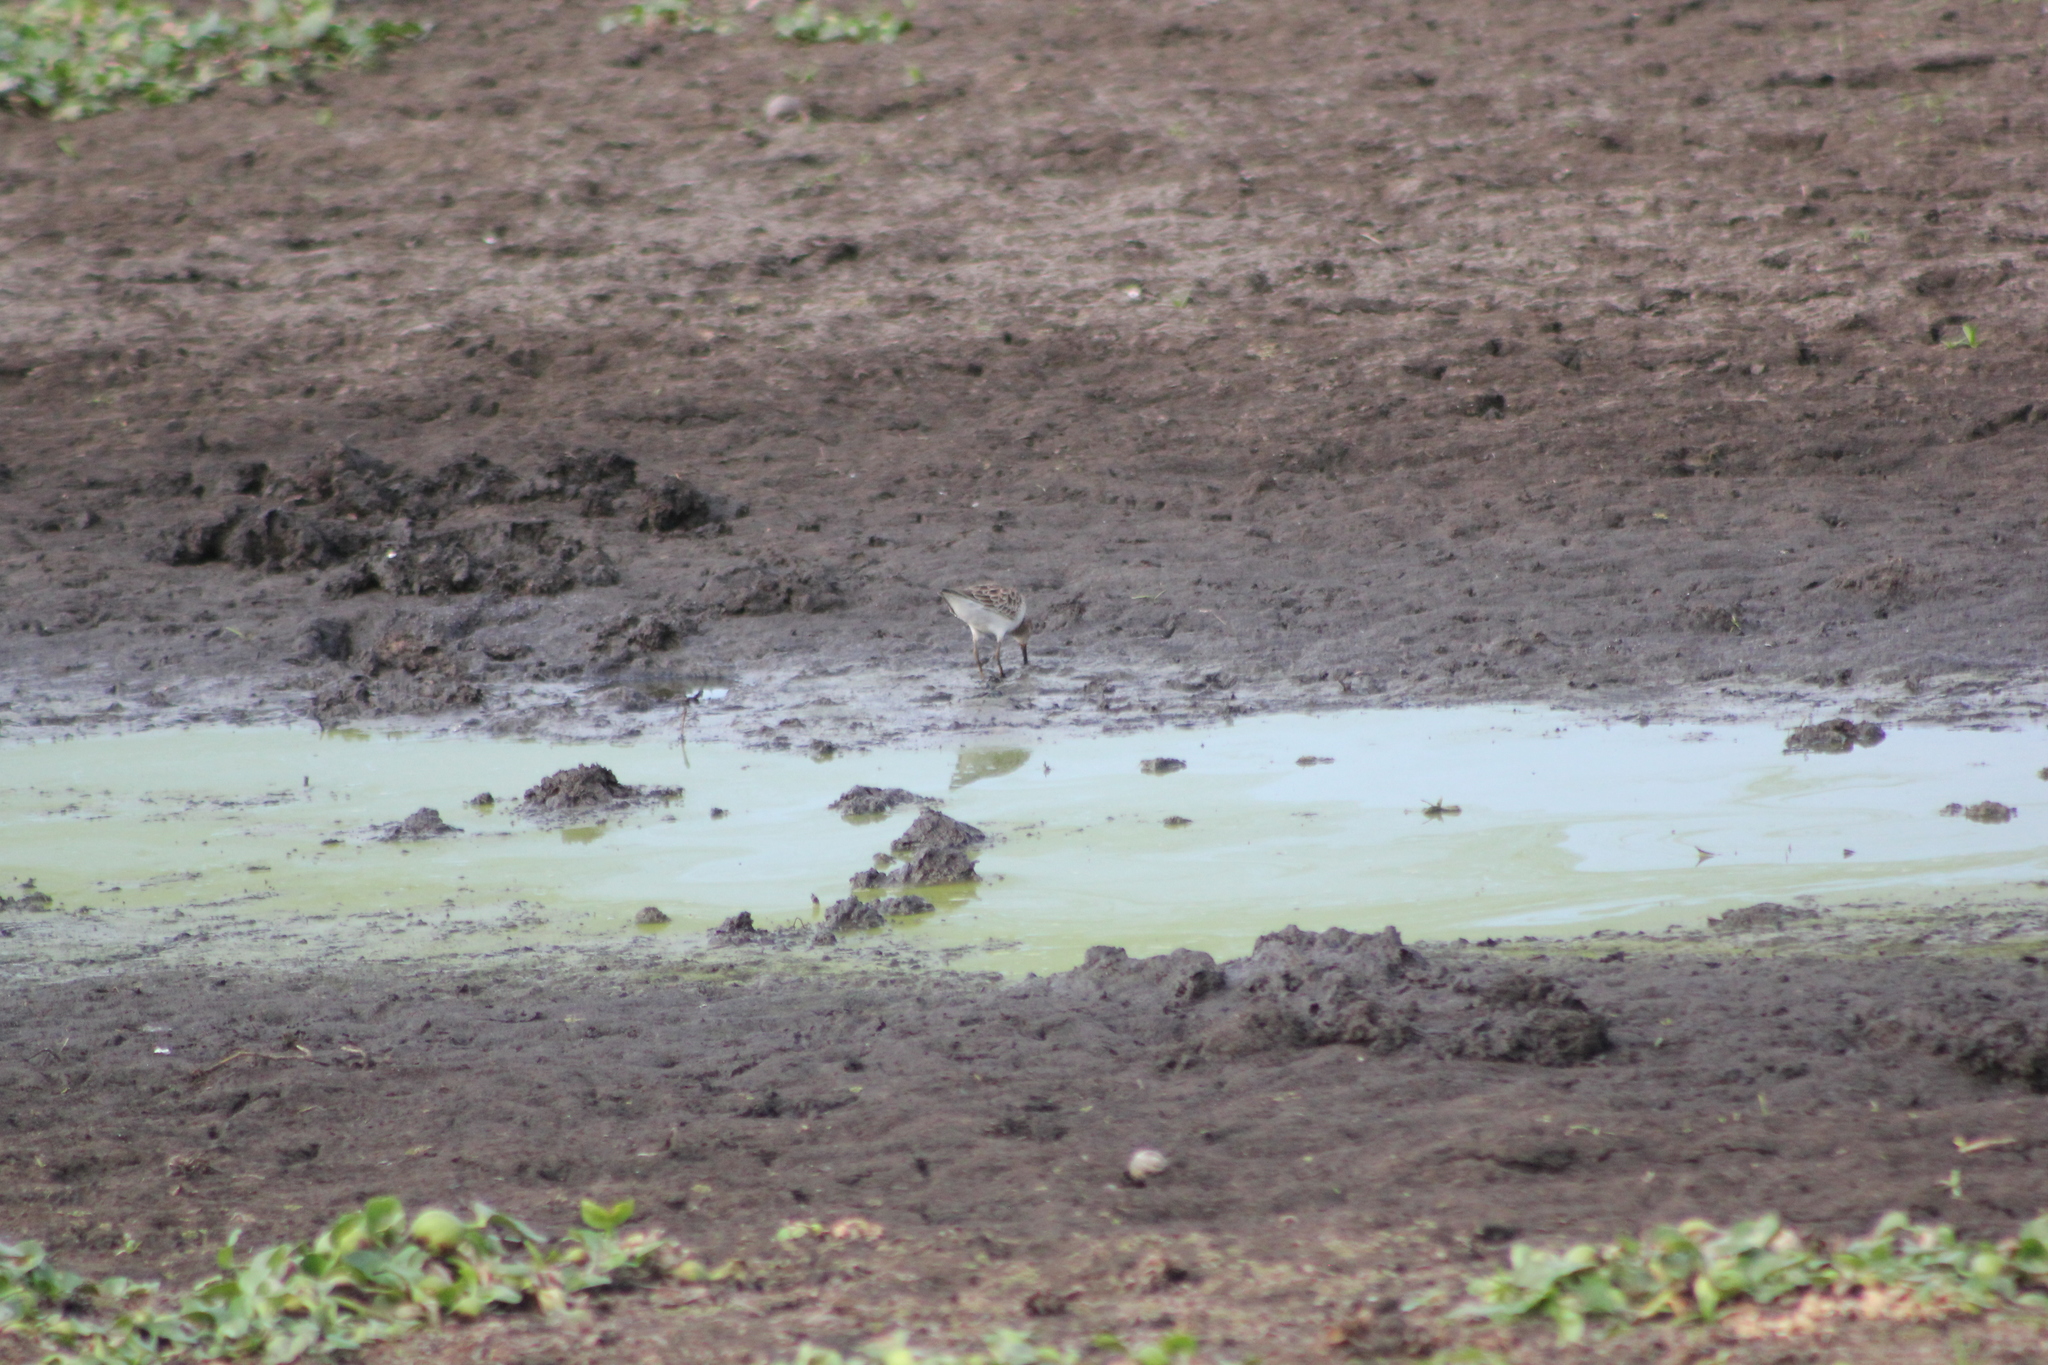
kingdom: Animalia
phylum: Chordata
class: Aves
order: Charadriiformes
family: Scolopacidae
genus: Calidris
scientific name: Calidris melanotos
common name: Pectoral sandpiper
